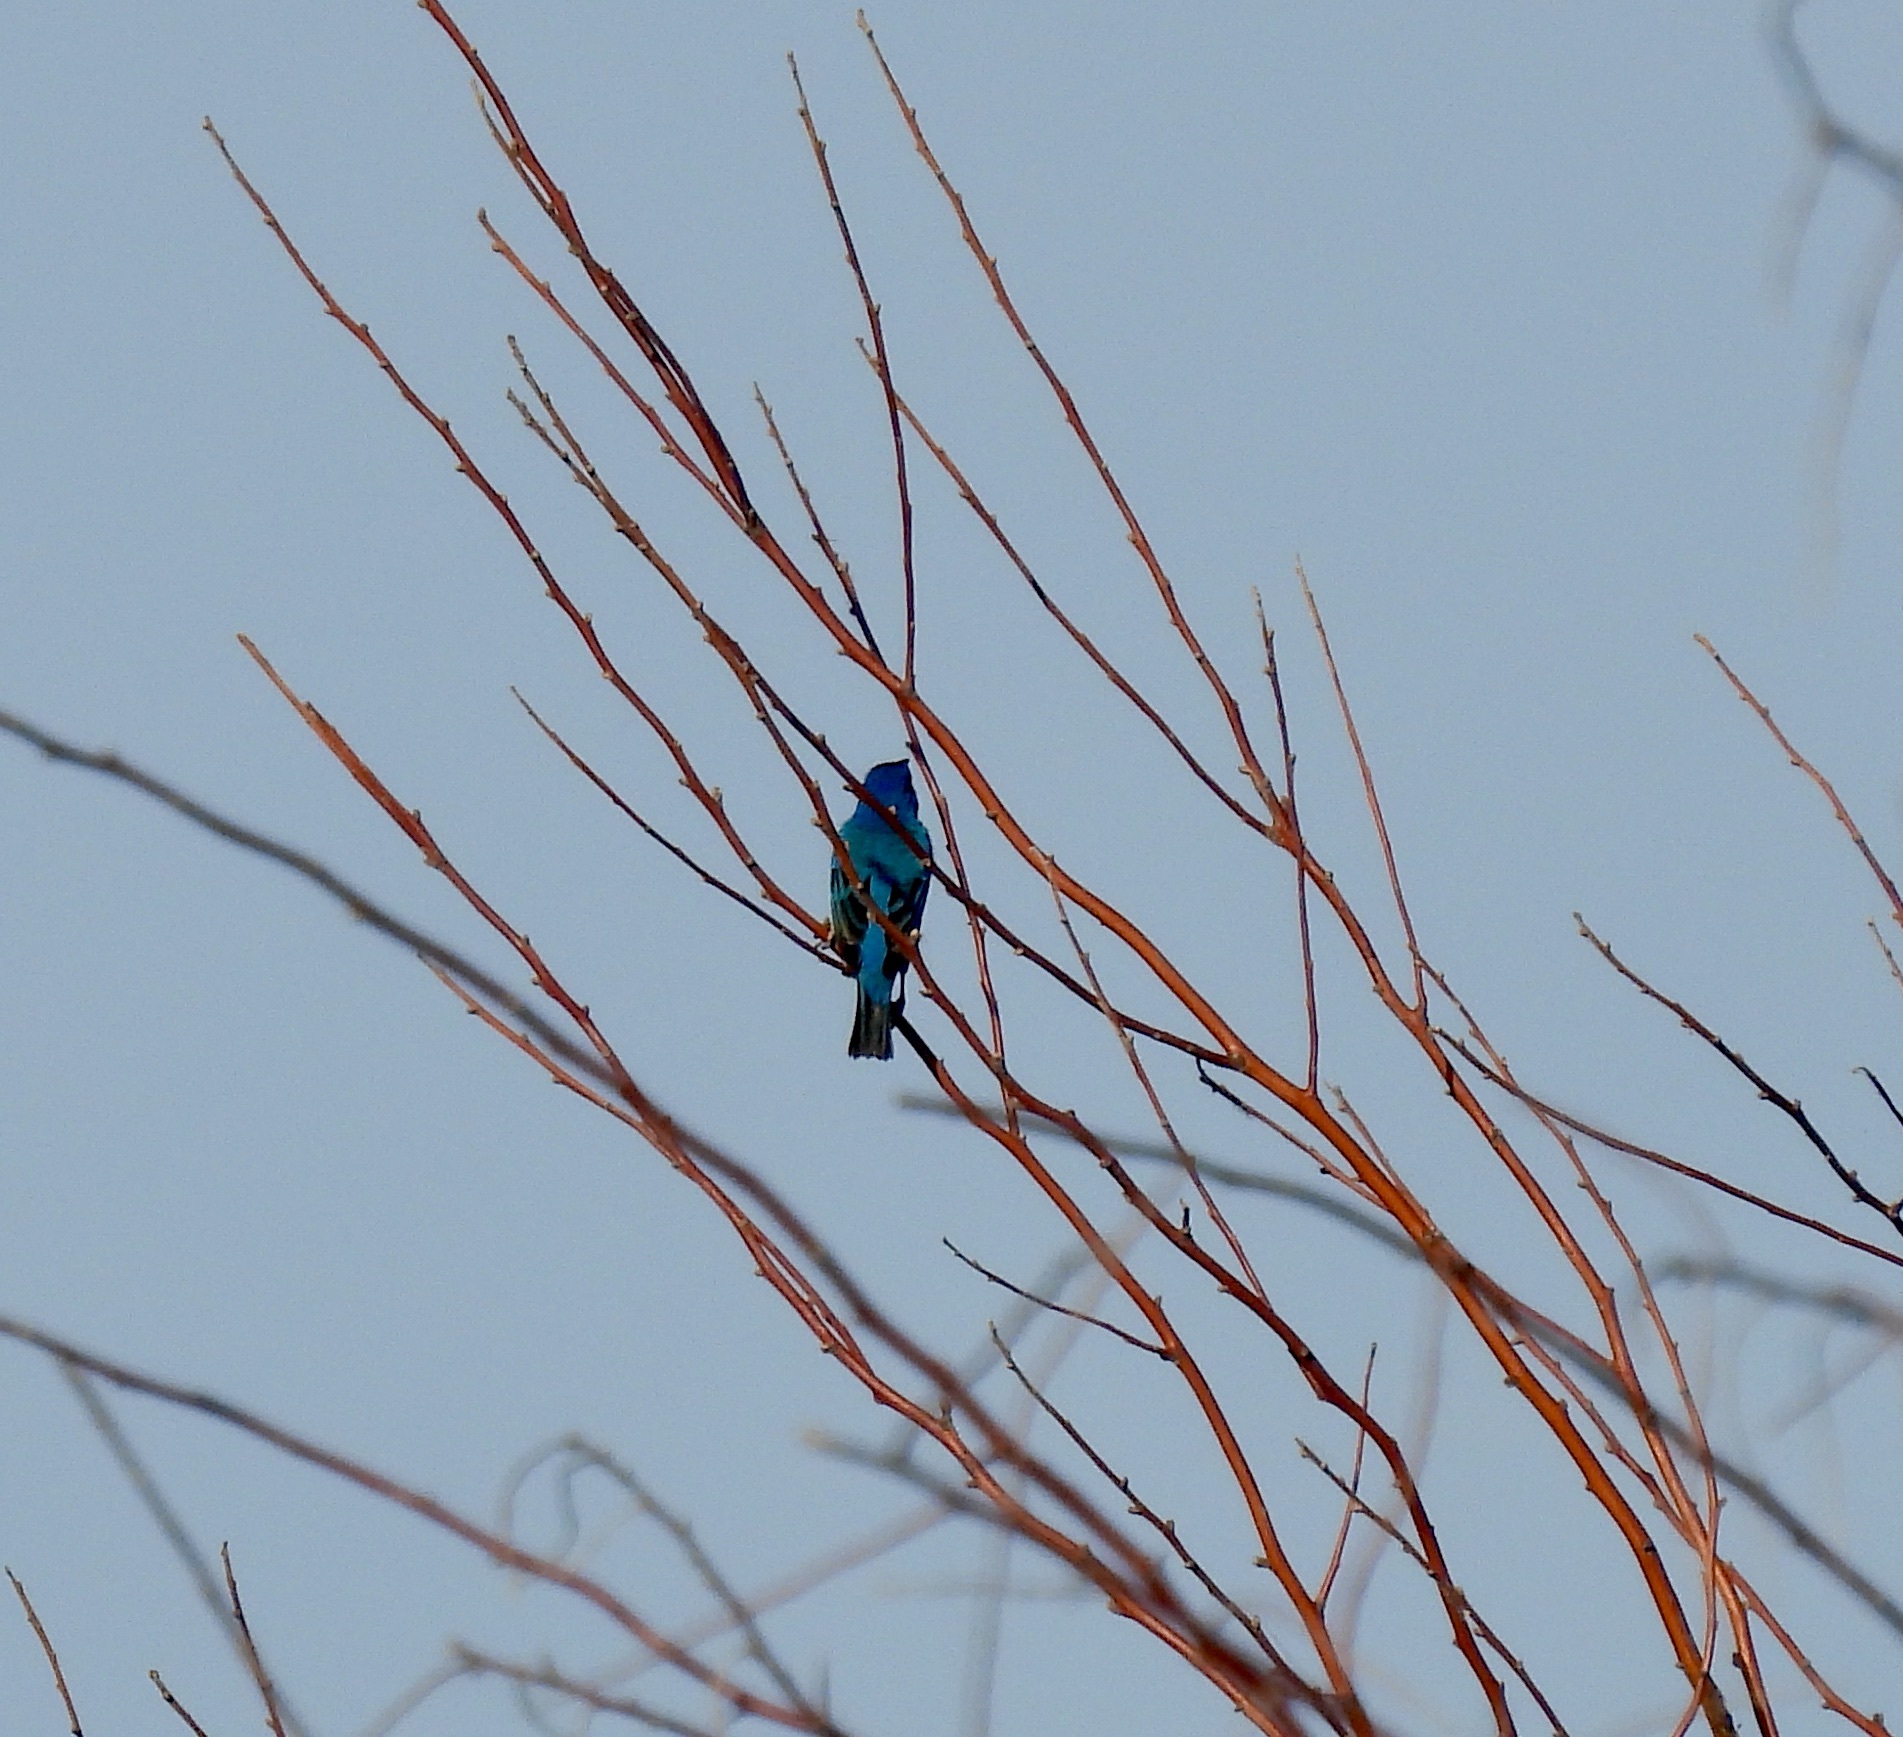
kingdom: Animalia
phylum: Chordata
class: Aves
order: Passeriformes
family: Cardinalidae
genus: Passerina
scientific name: Passerina cyanea
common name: Indigo bunting
